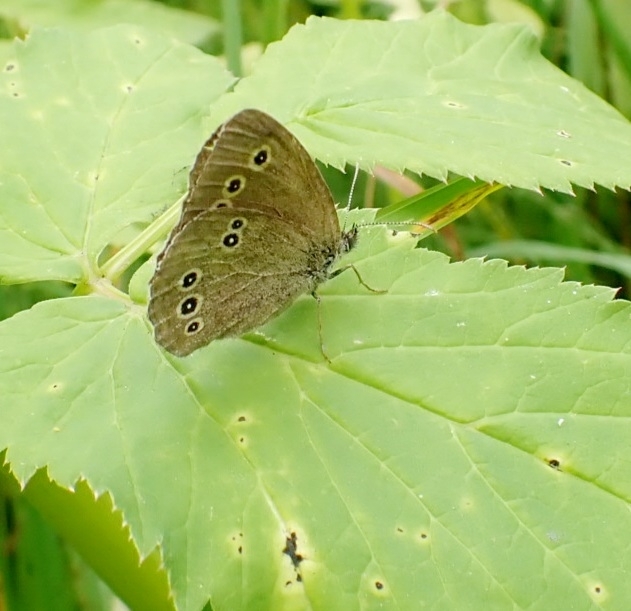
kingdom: Animalia
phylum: Arthropoda
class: Insecta
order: Lepidoptera
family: Nymphalidae
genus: Aphantopus
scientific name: Aphantopus hyperantus
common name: Ringlet
